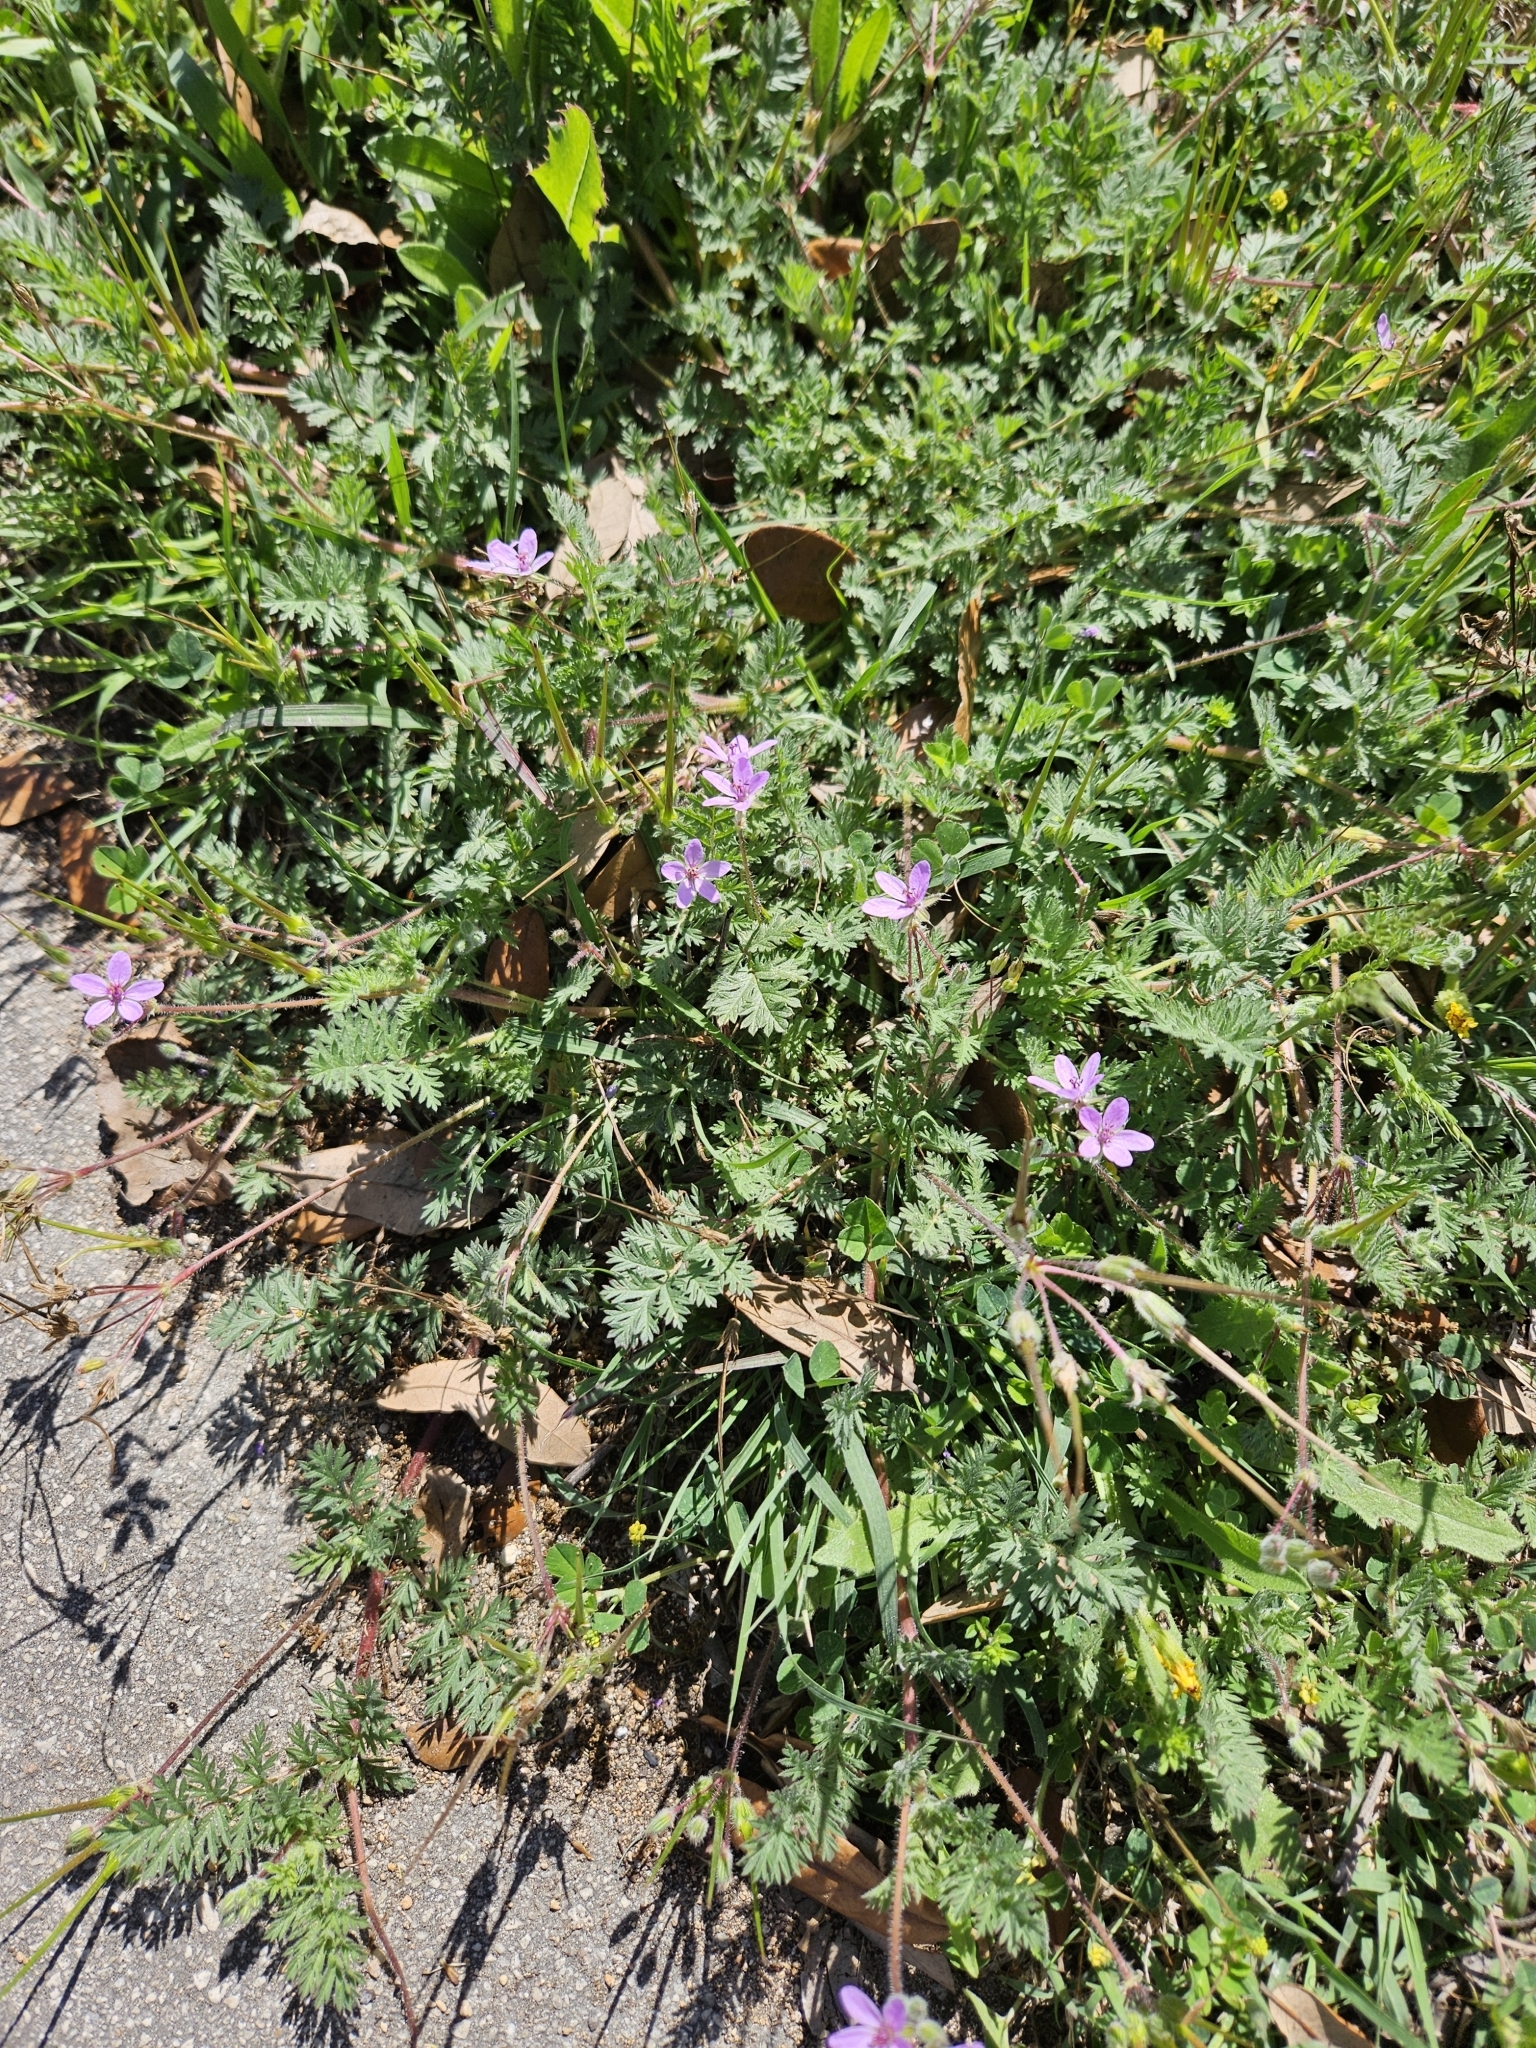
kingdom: Plantae
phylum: Tracheophyta
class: Magnoliopsida
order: Geraniales
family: Geraniaceae
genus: Erodium
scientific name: Erodium cicutarium
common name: Common stork's-bill
